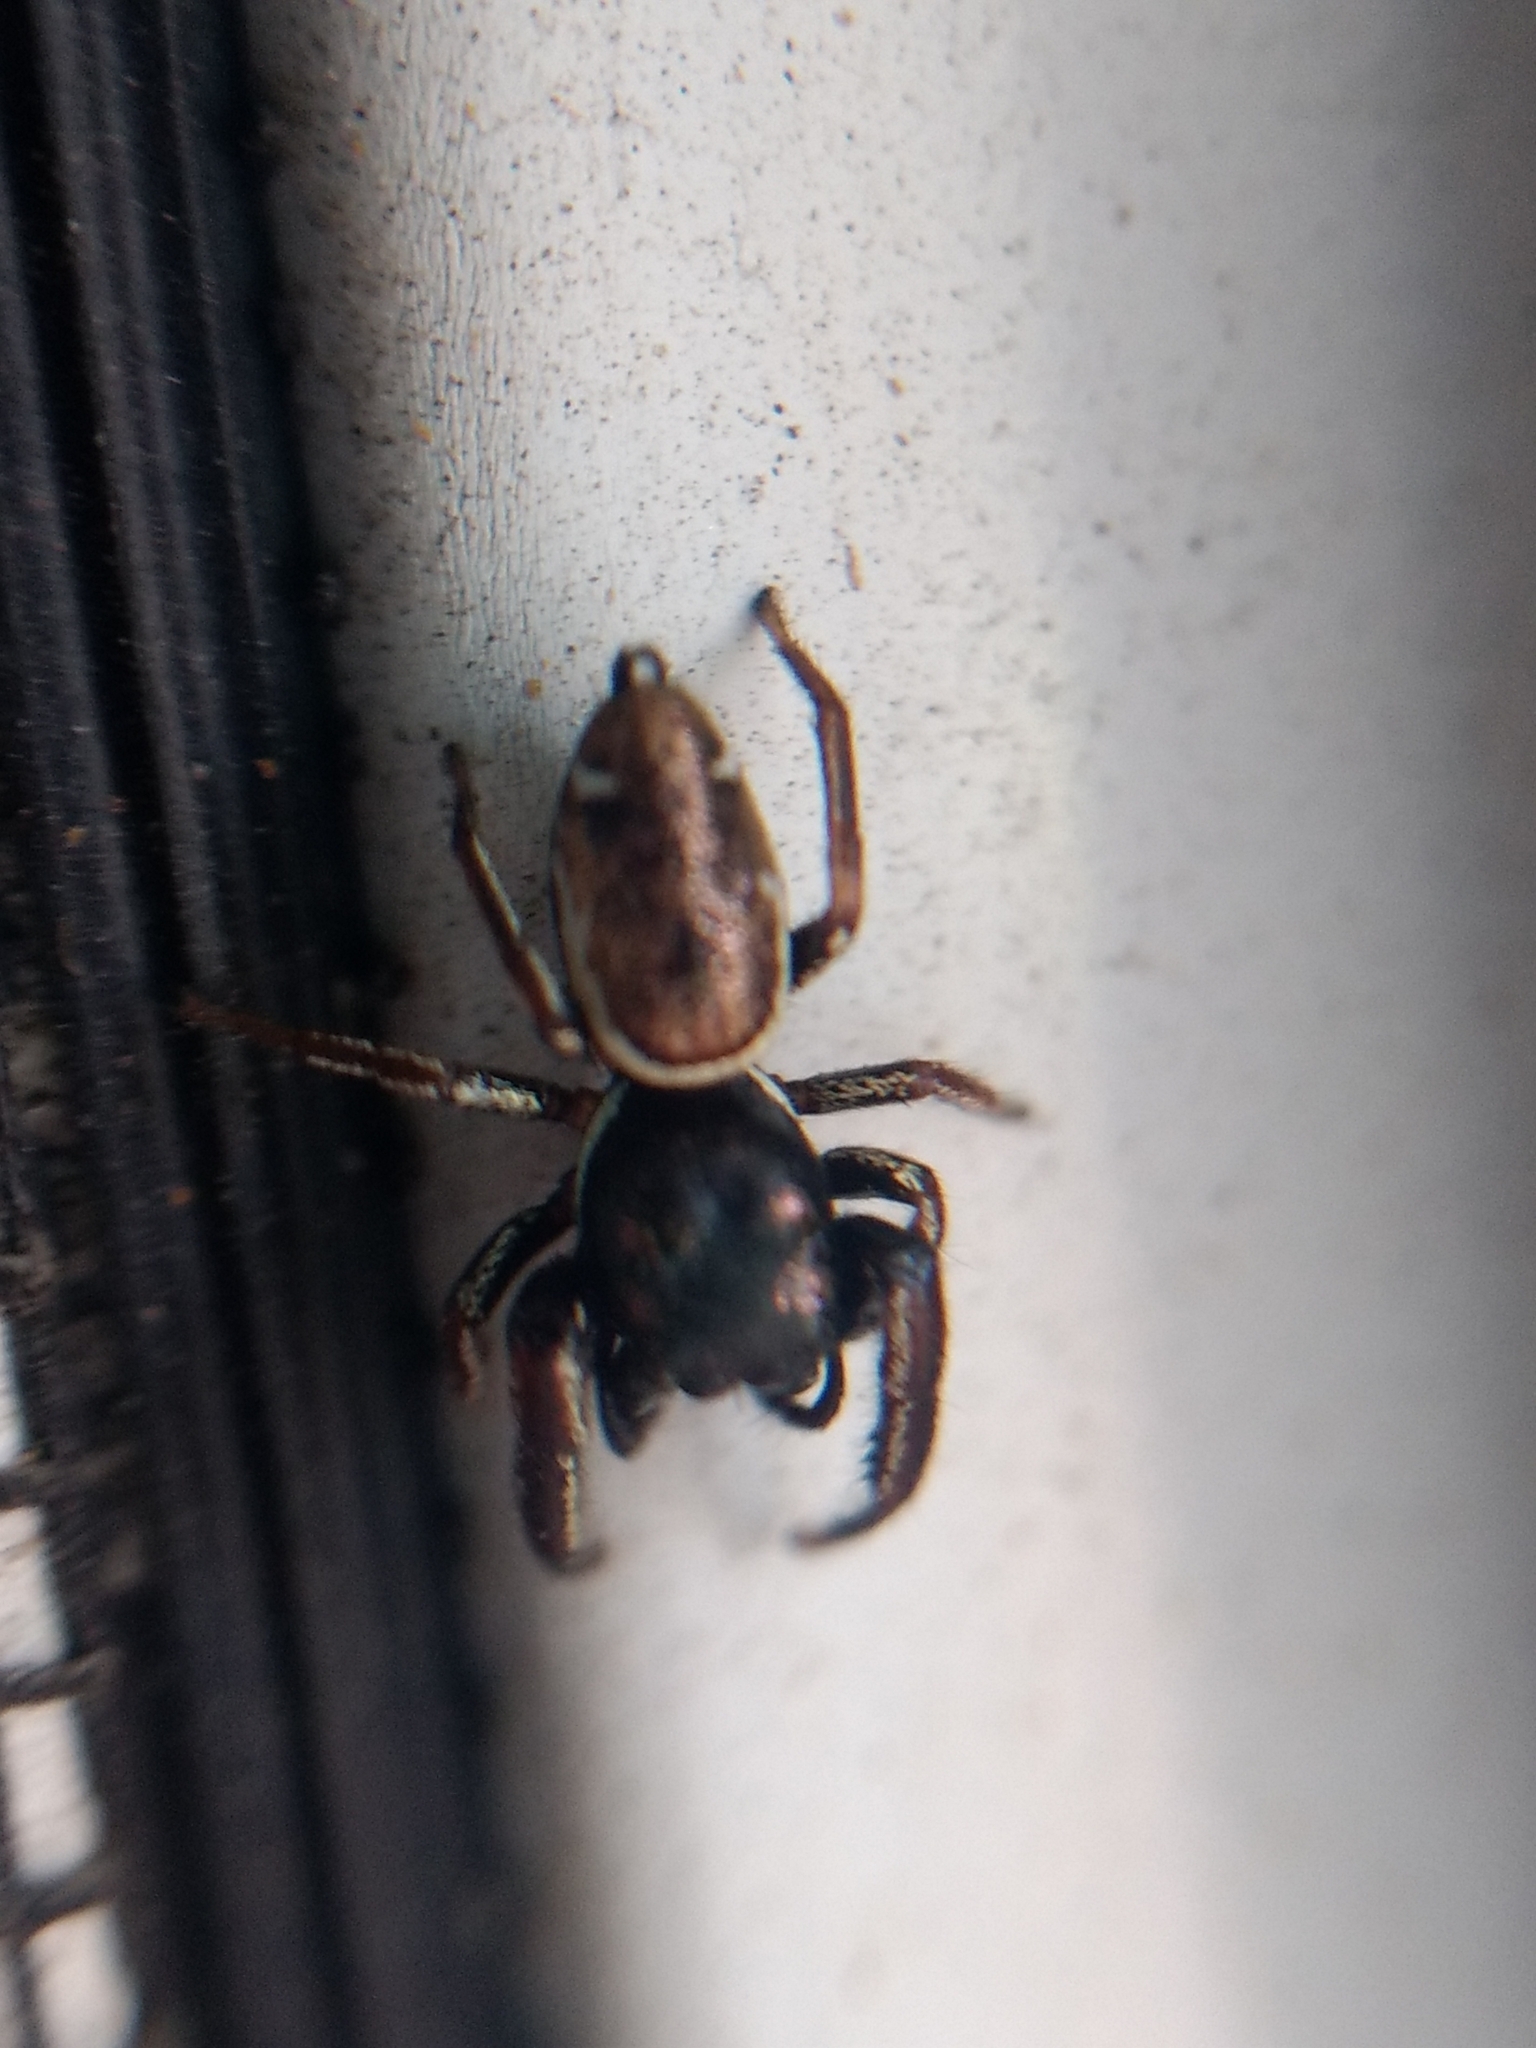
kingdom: Animalia
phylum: Arthropoda
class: Arachnida
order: Araneae
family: Salticidae
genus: Sassacus
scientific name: Sassacus vitis
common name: Jumping spiders
